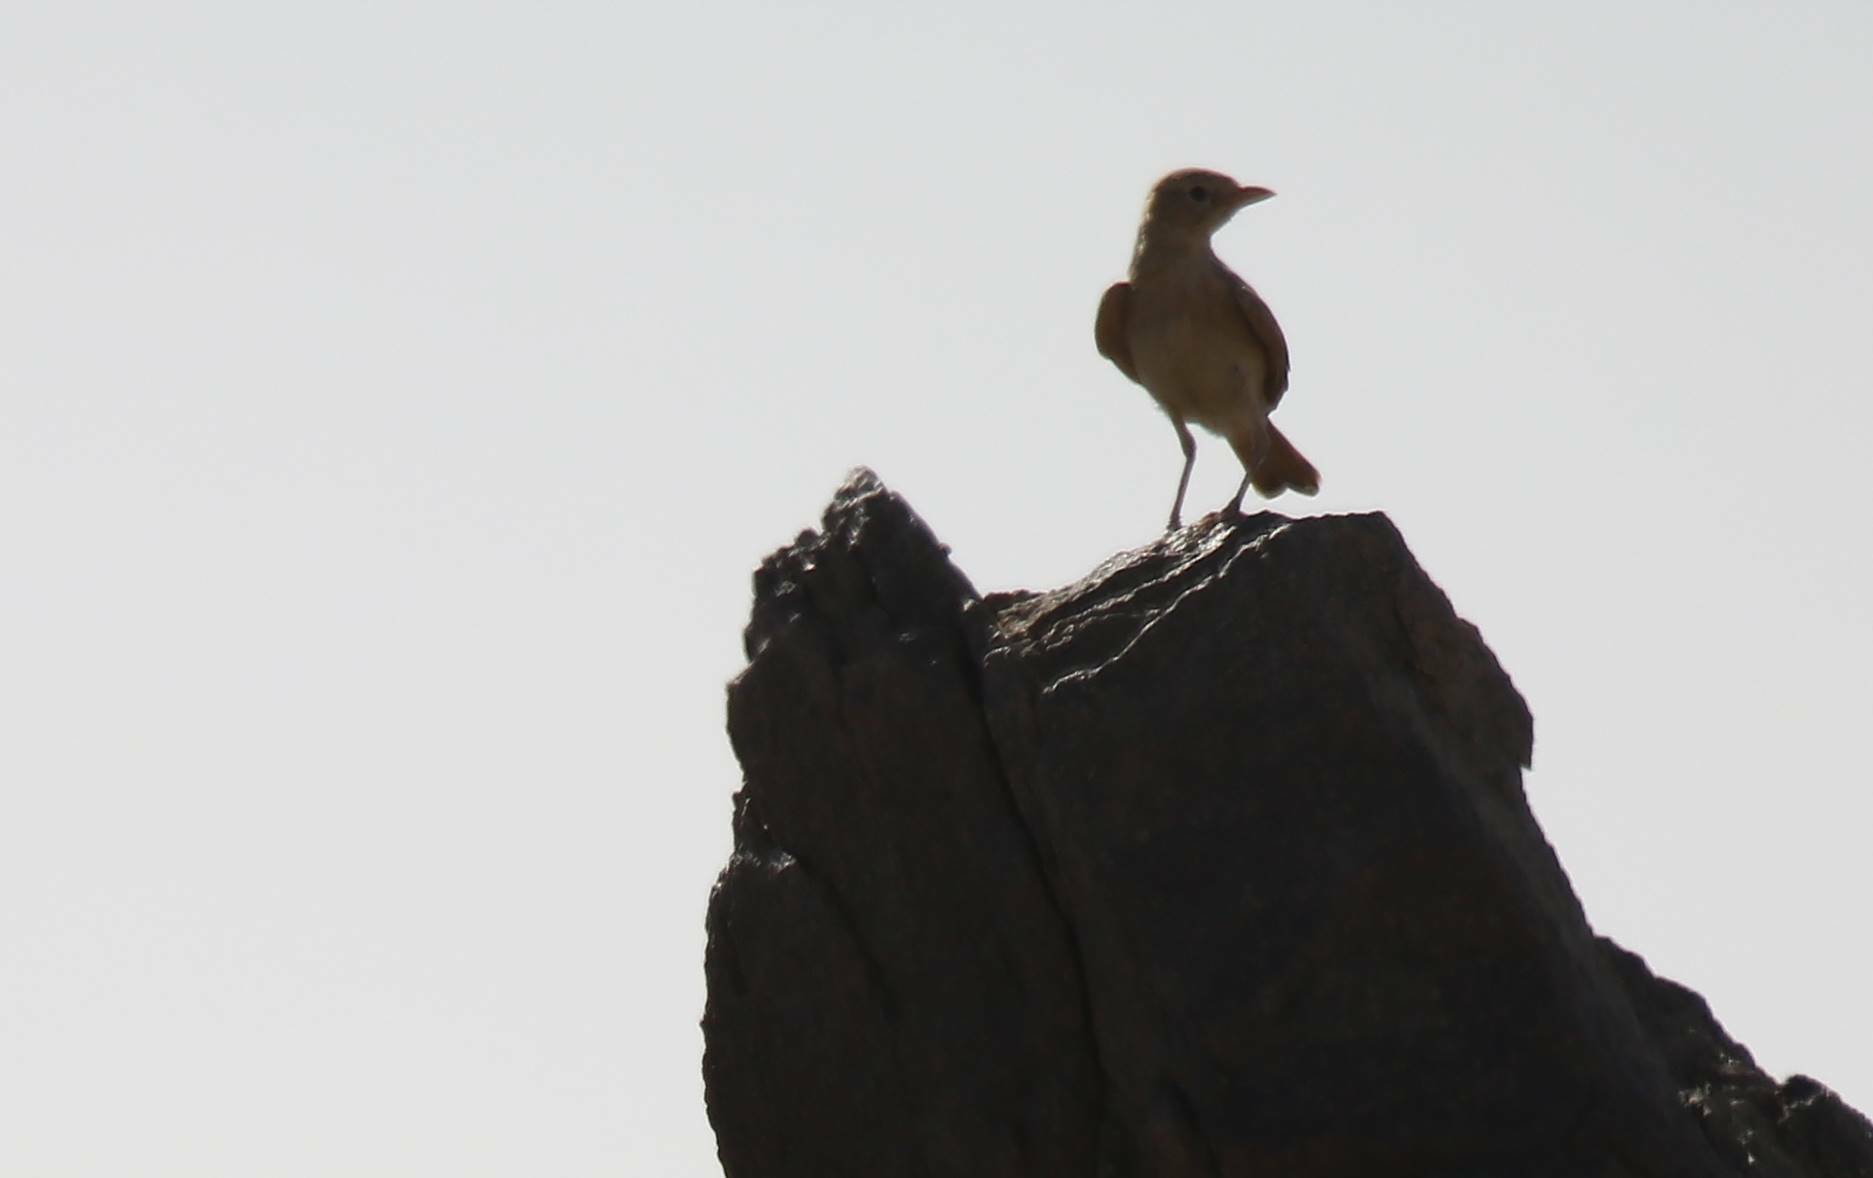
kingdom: Animalia
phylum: Chordata
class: Aves
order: Passeriformes
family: Alaudidae
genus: Ammomanes
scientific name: Ammomanes deserti
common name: Desert lark
